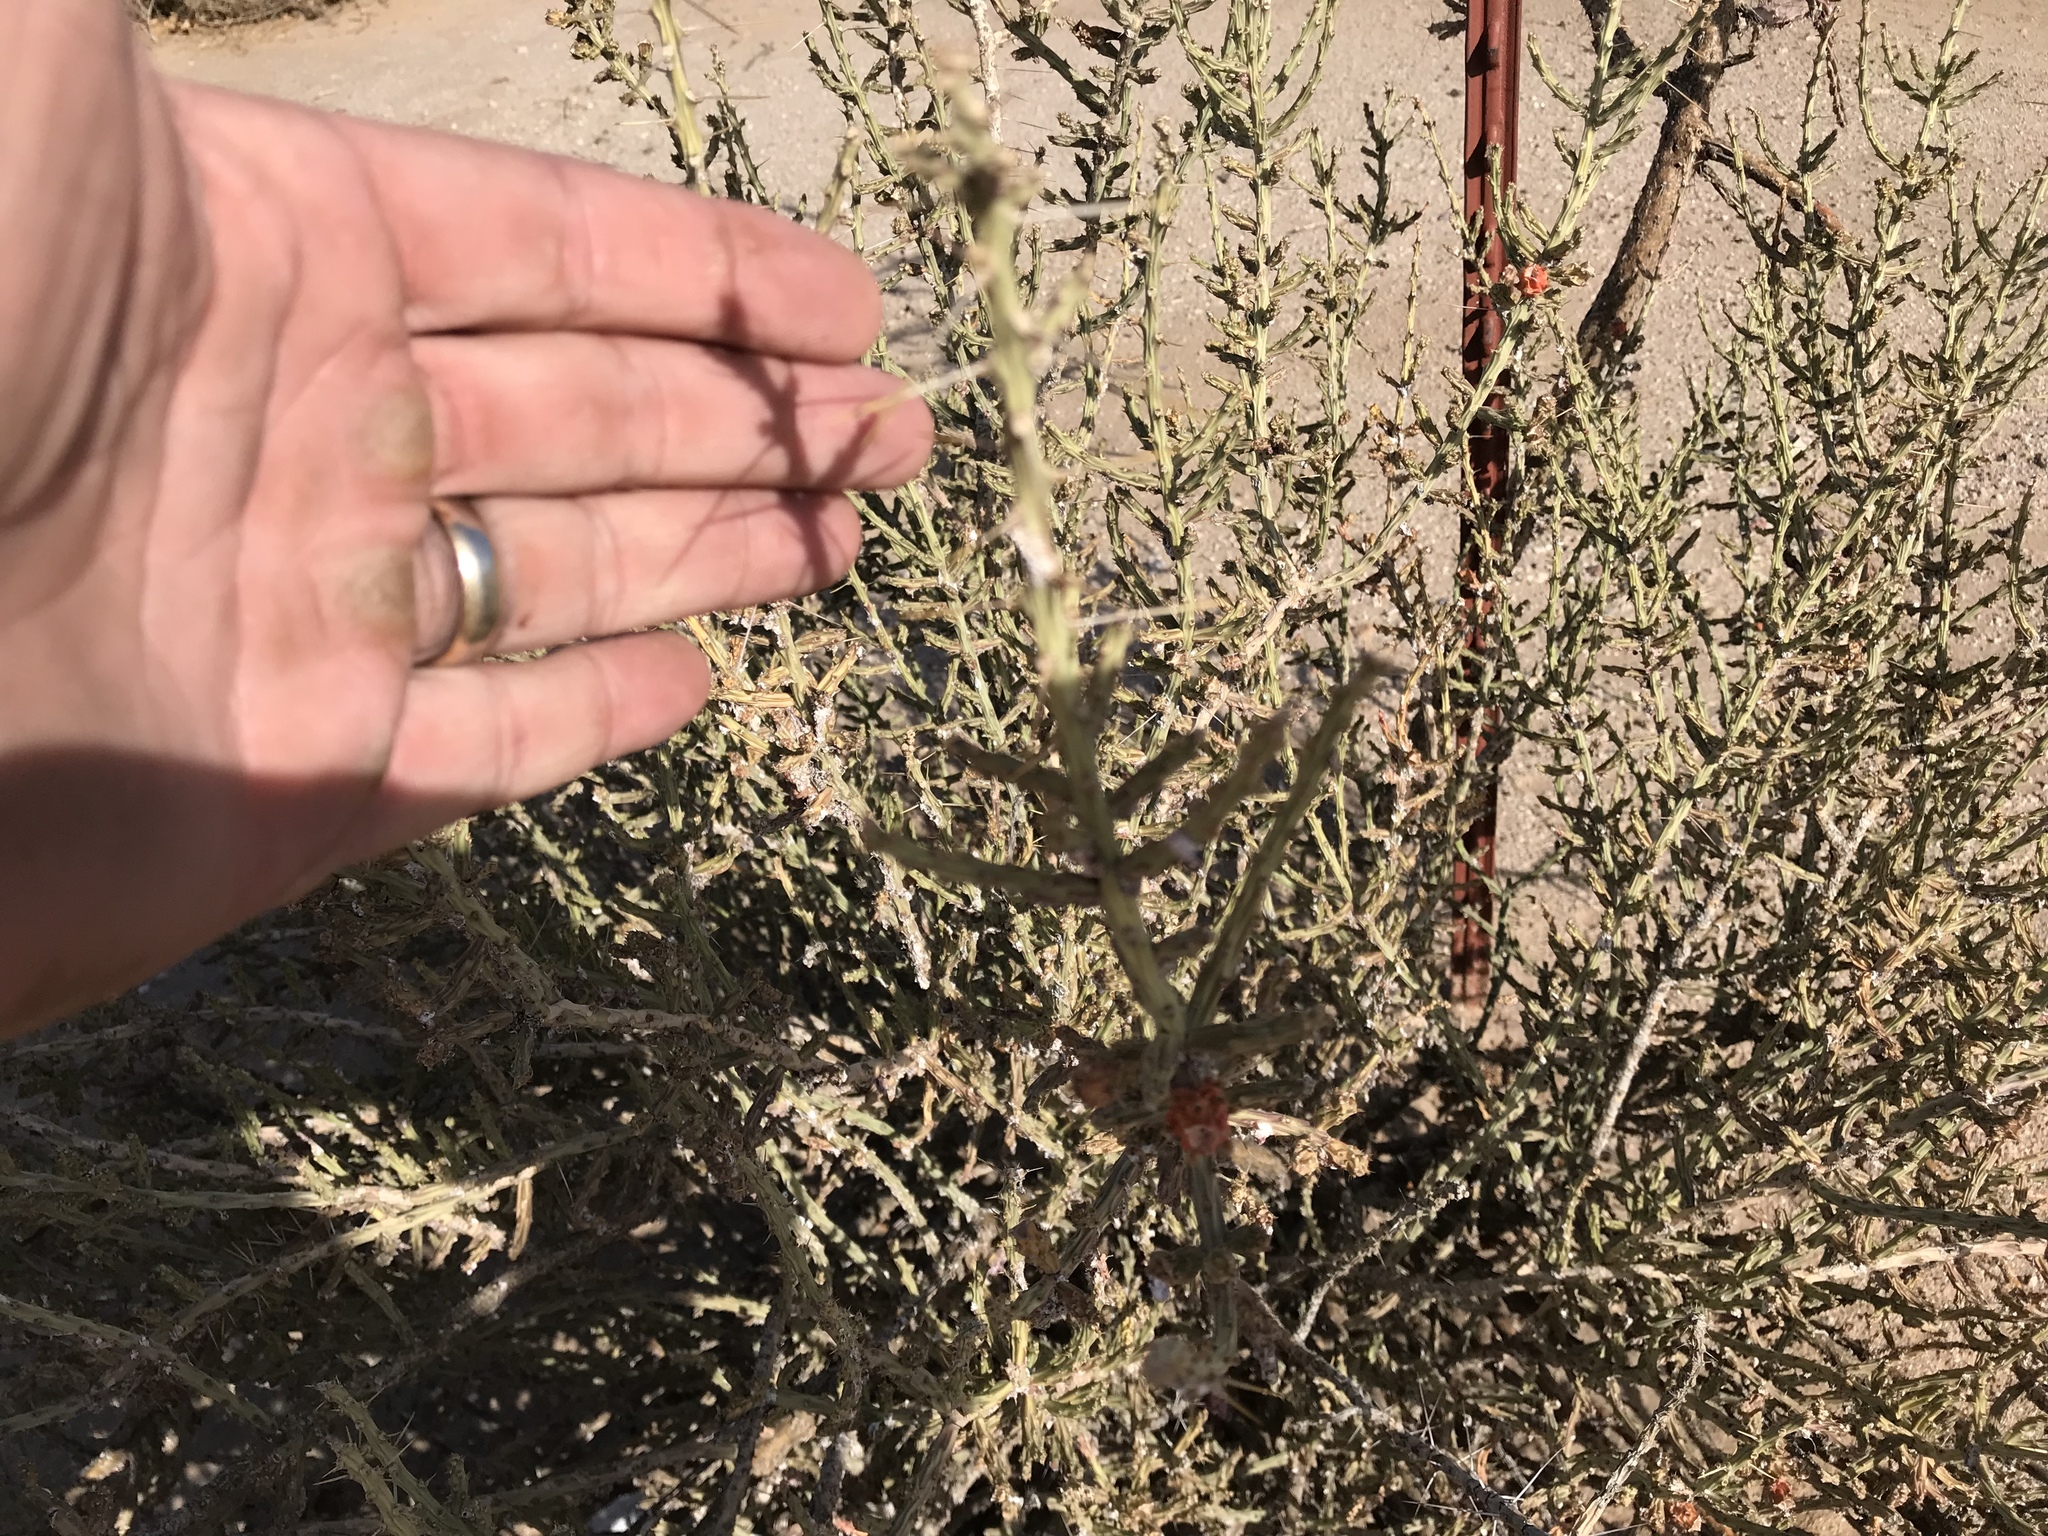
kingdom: Plantae
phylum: Tracheophyta
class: Magnoliopsida
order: Caryophyllales
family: Cactaceae
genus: Cylindropuntia
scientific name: Cylindropuntia leptocaulis
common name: Christmas cactus
